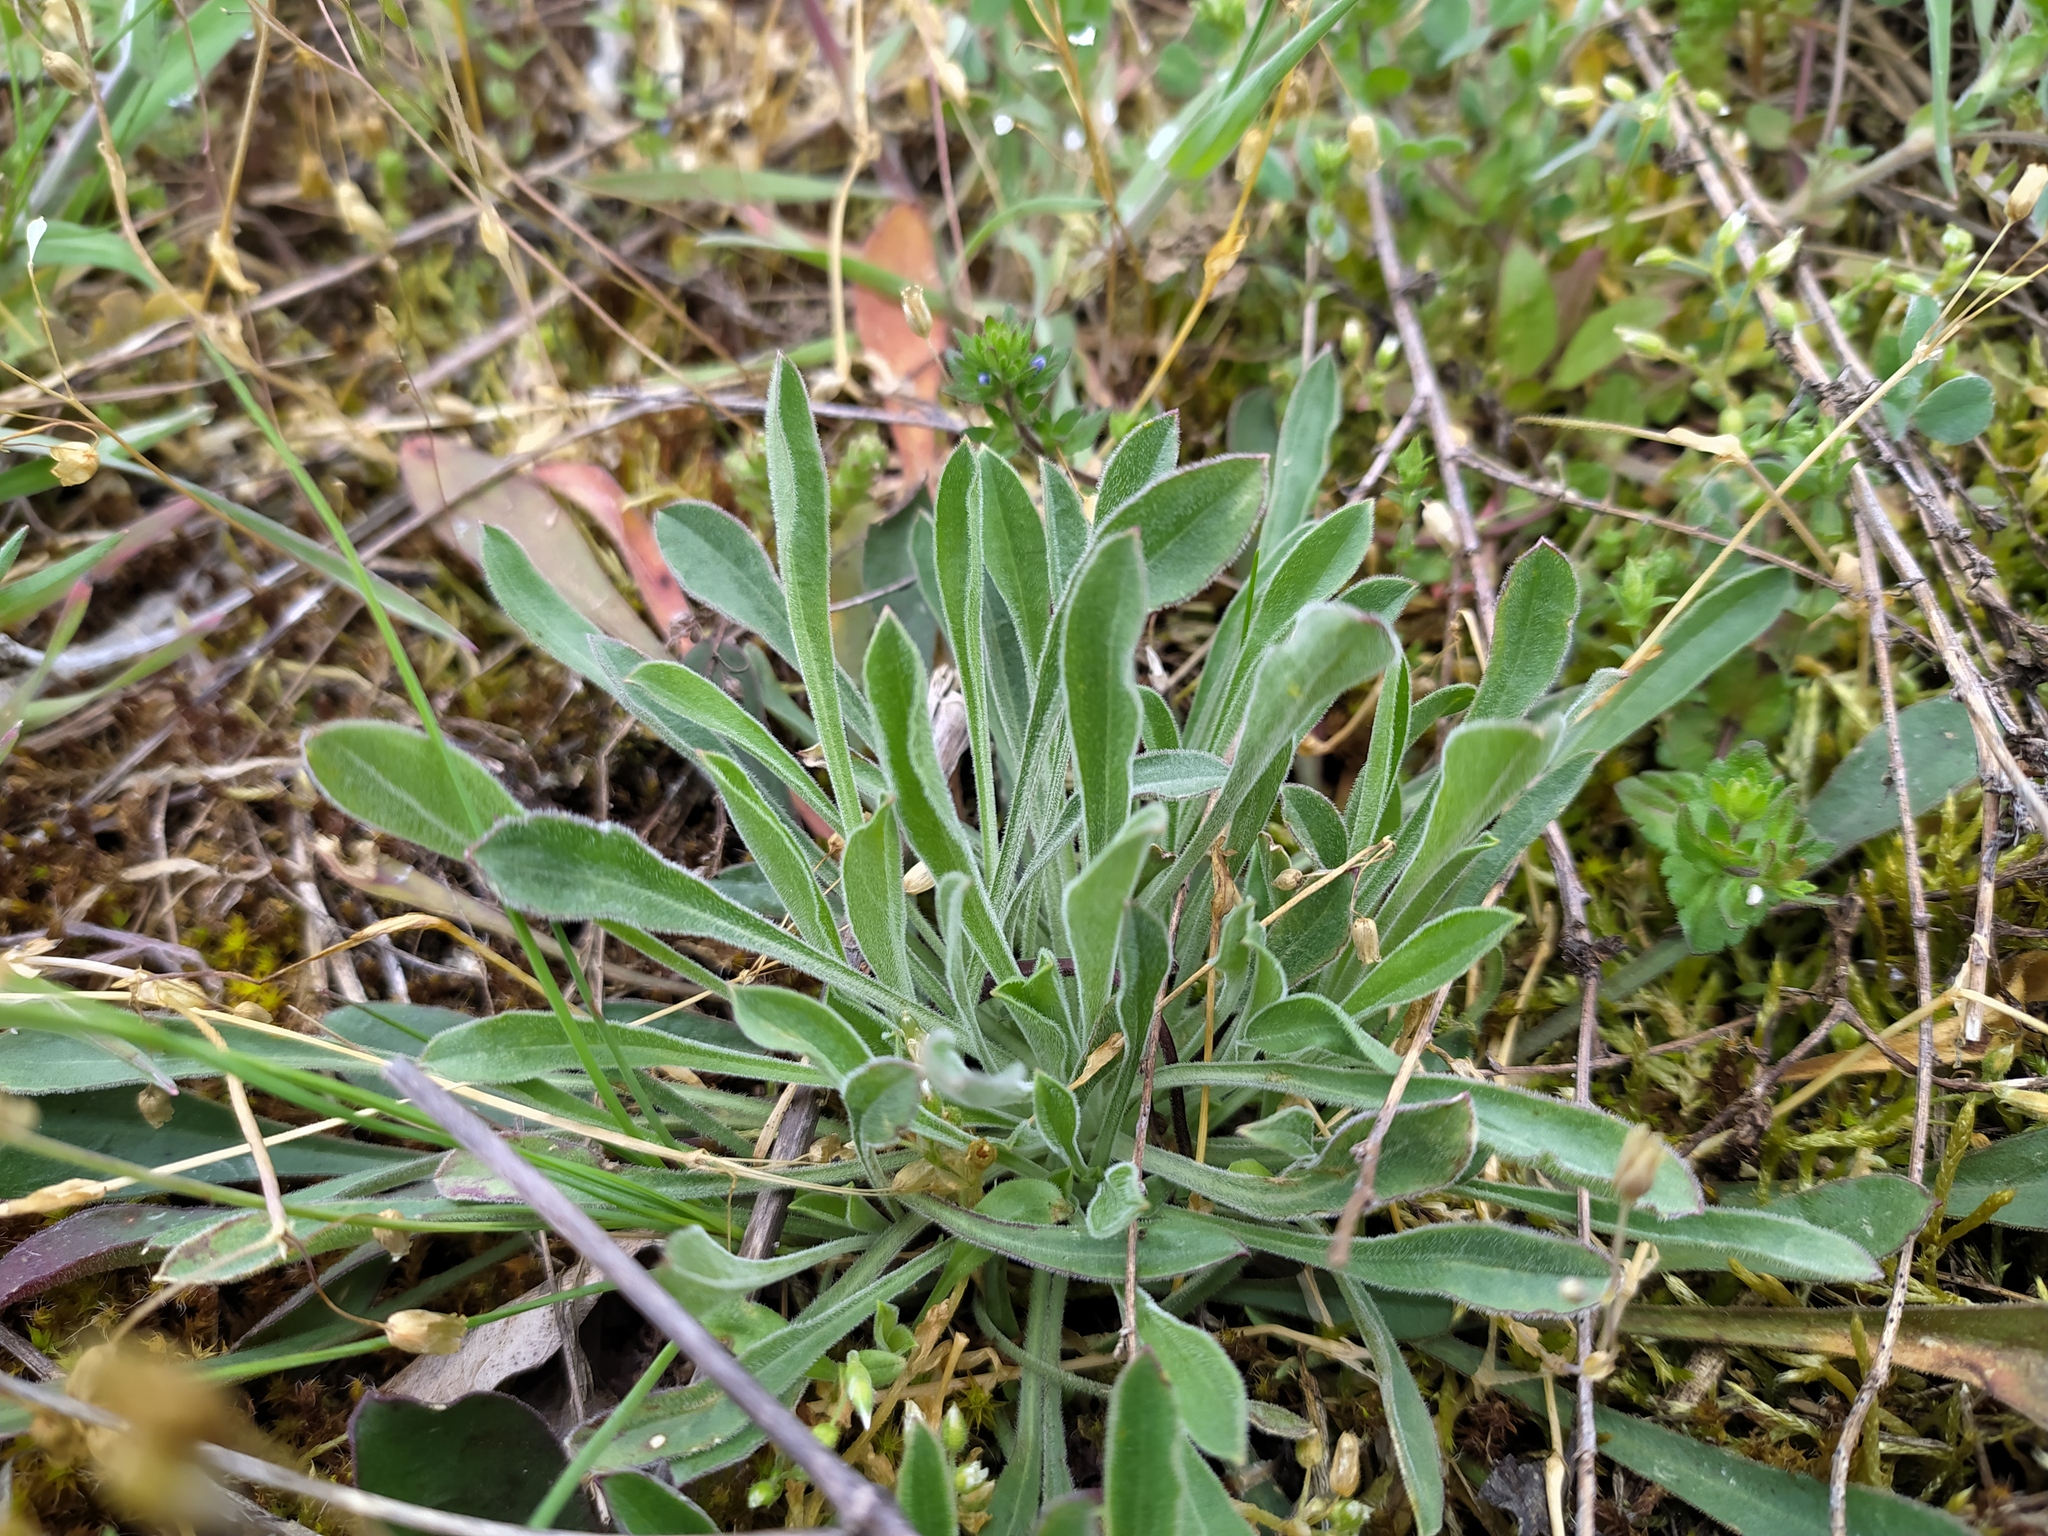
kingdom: Plantae
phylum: Tracheophyta
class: Magnoliopsida
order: Caryophyllales
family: Caryophyllaceae
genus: Silene
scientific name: Silene otites
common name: Spanish catchfly
